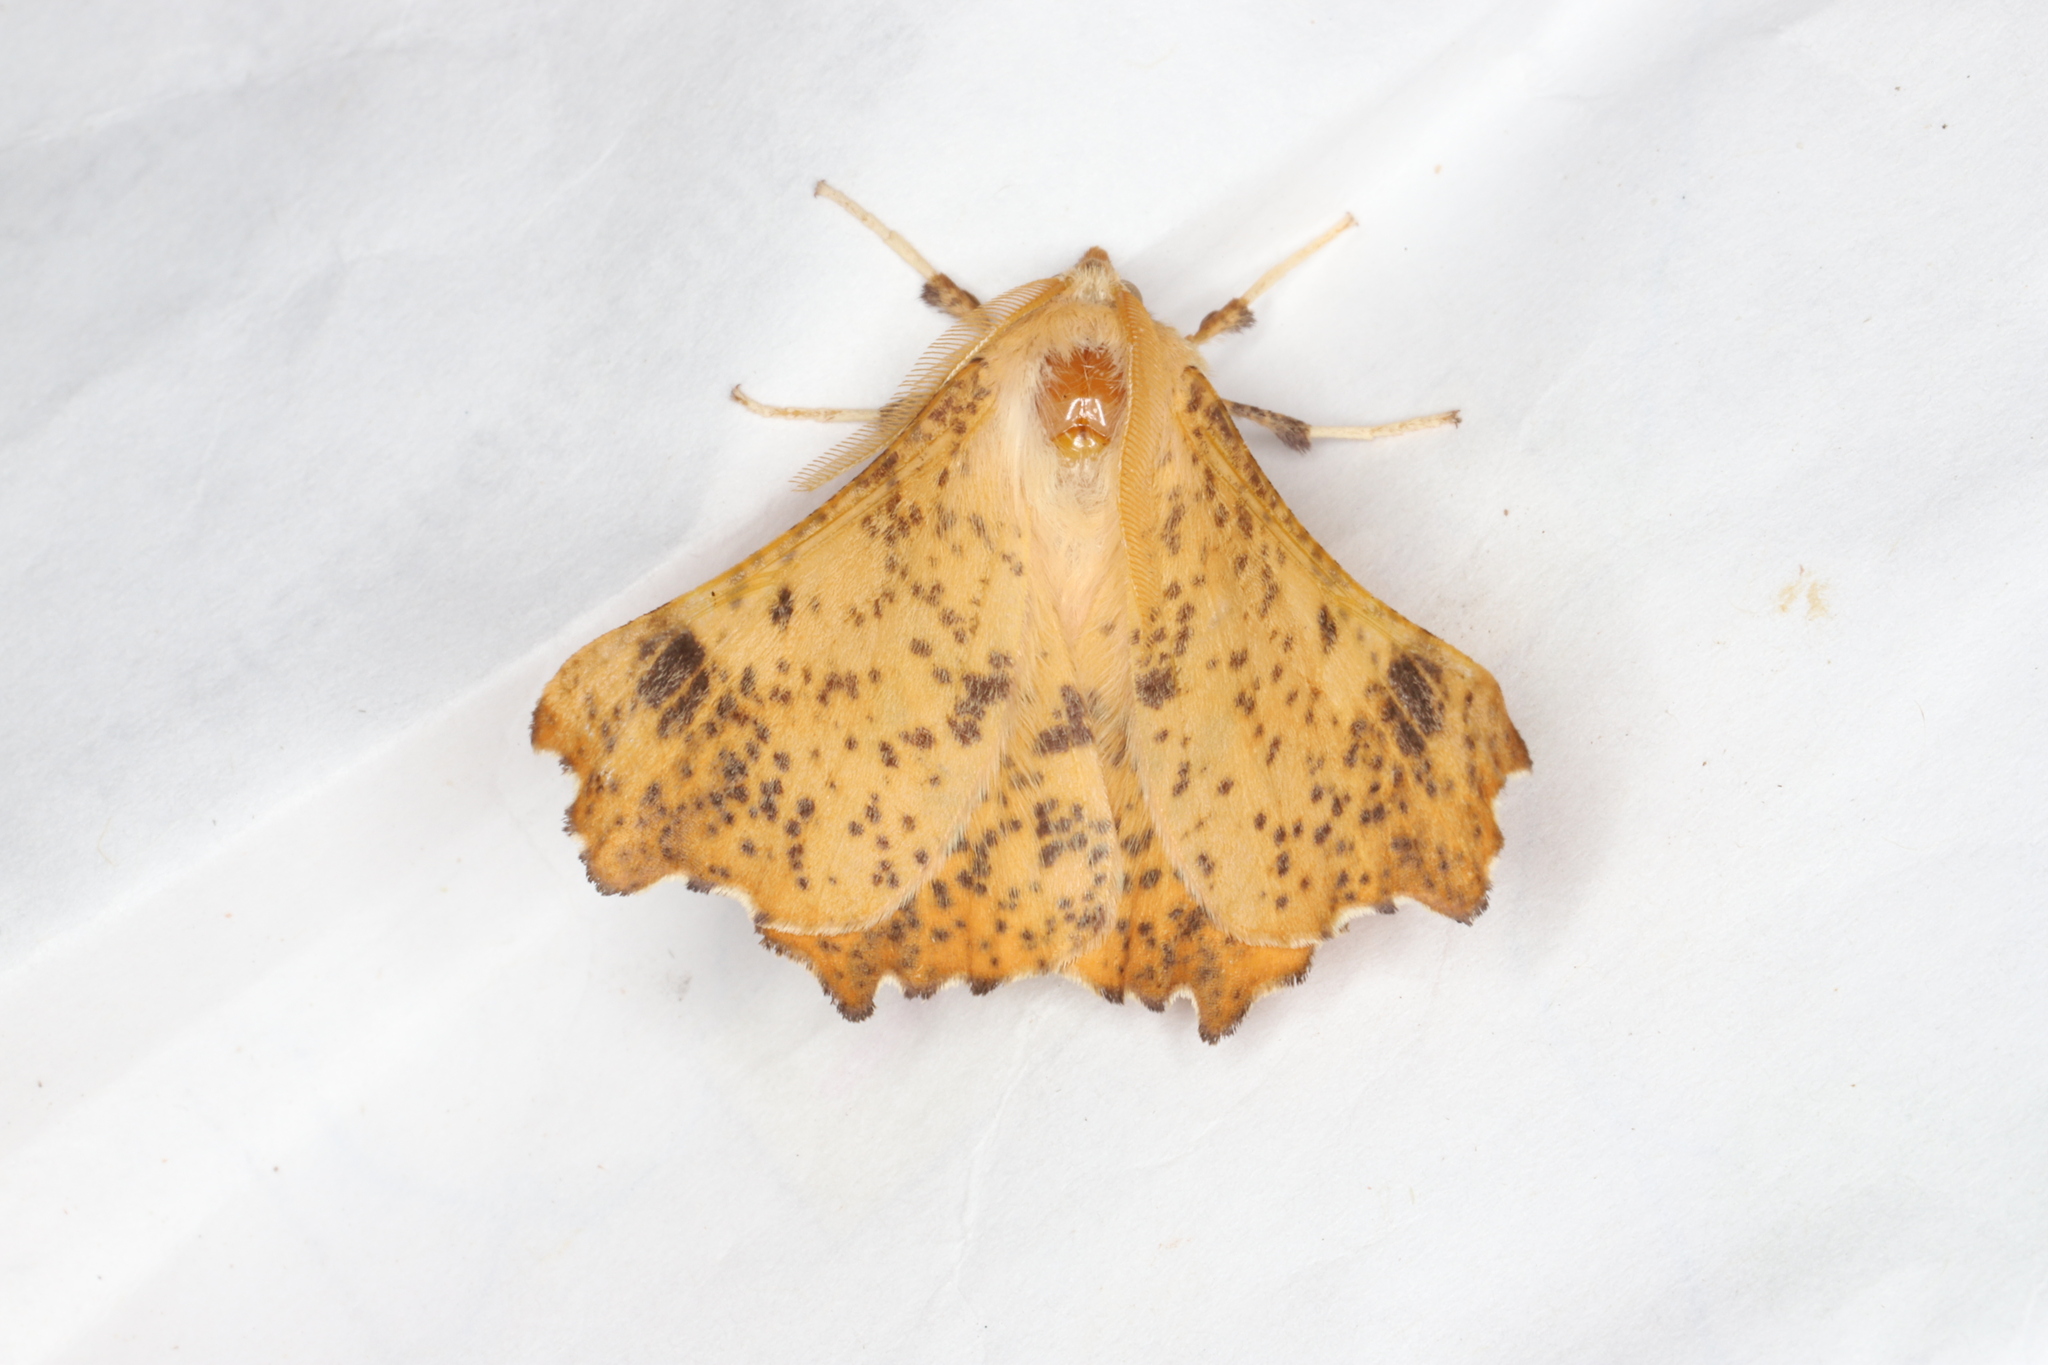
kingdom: Animalia
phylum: Arthropoda
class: Insecta
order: Lepidoptera
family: Geometridae
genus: Ennomos
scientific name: Ennomos magnaria
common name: Maple spanworm
